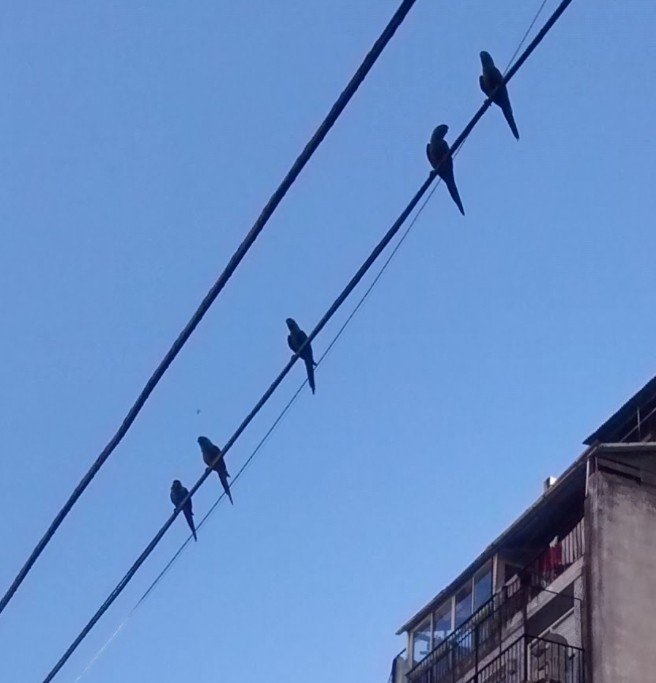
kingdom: Animalia
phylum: Chordata
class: Aves
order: Psittaciformes
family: Psittacidae
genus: Pyrrhura
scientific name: Pyrrhura frontalis
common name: Maroon-bellied parakeet
